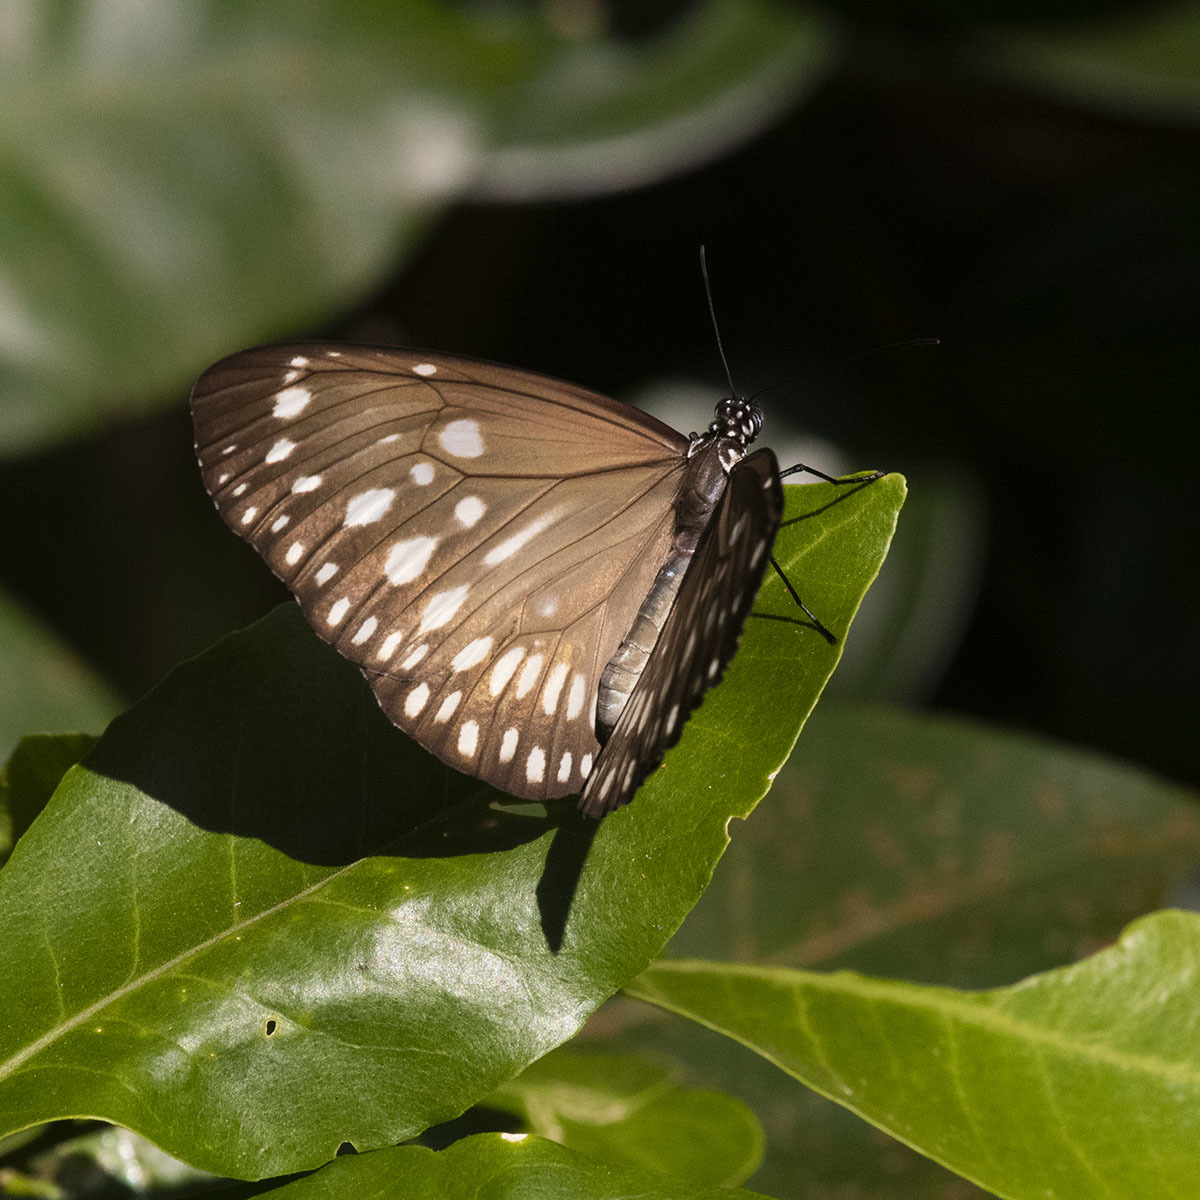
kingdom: Animalia
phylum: Arthropoda
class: Insecta
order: Lepidoptera
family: Nymphalidae
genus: Euploea
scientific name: Euploea core
